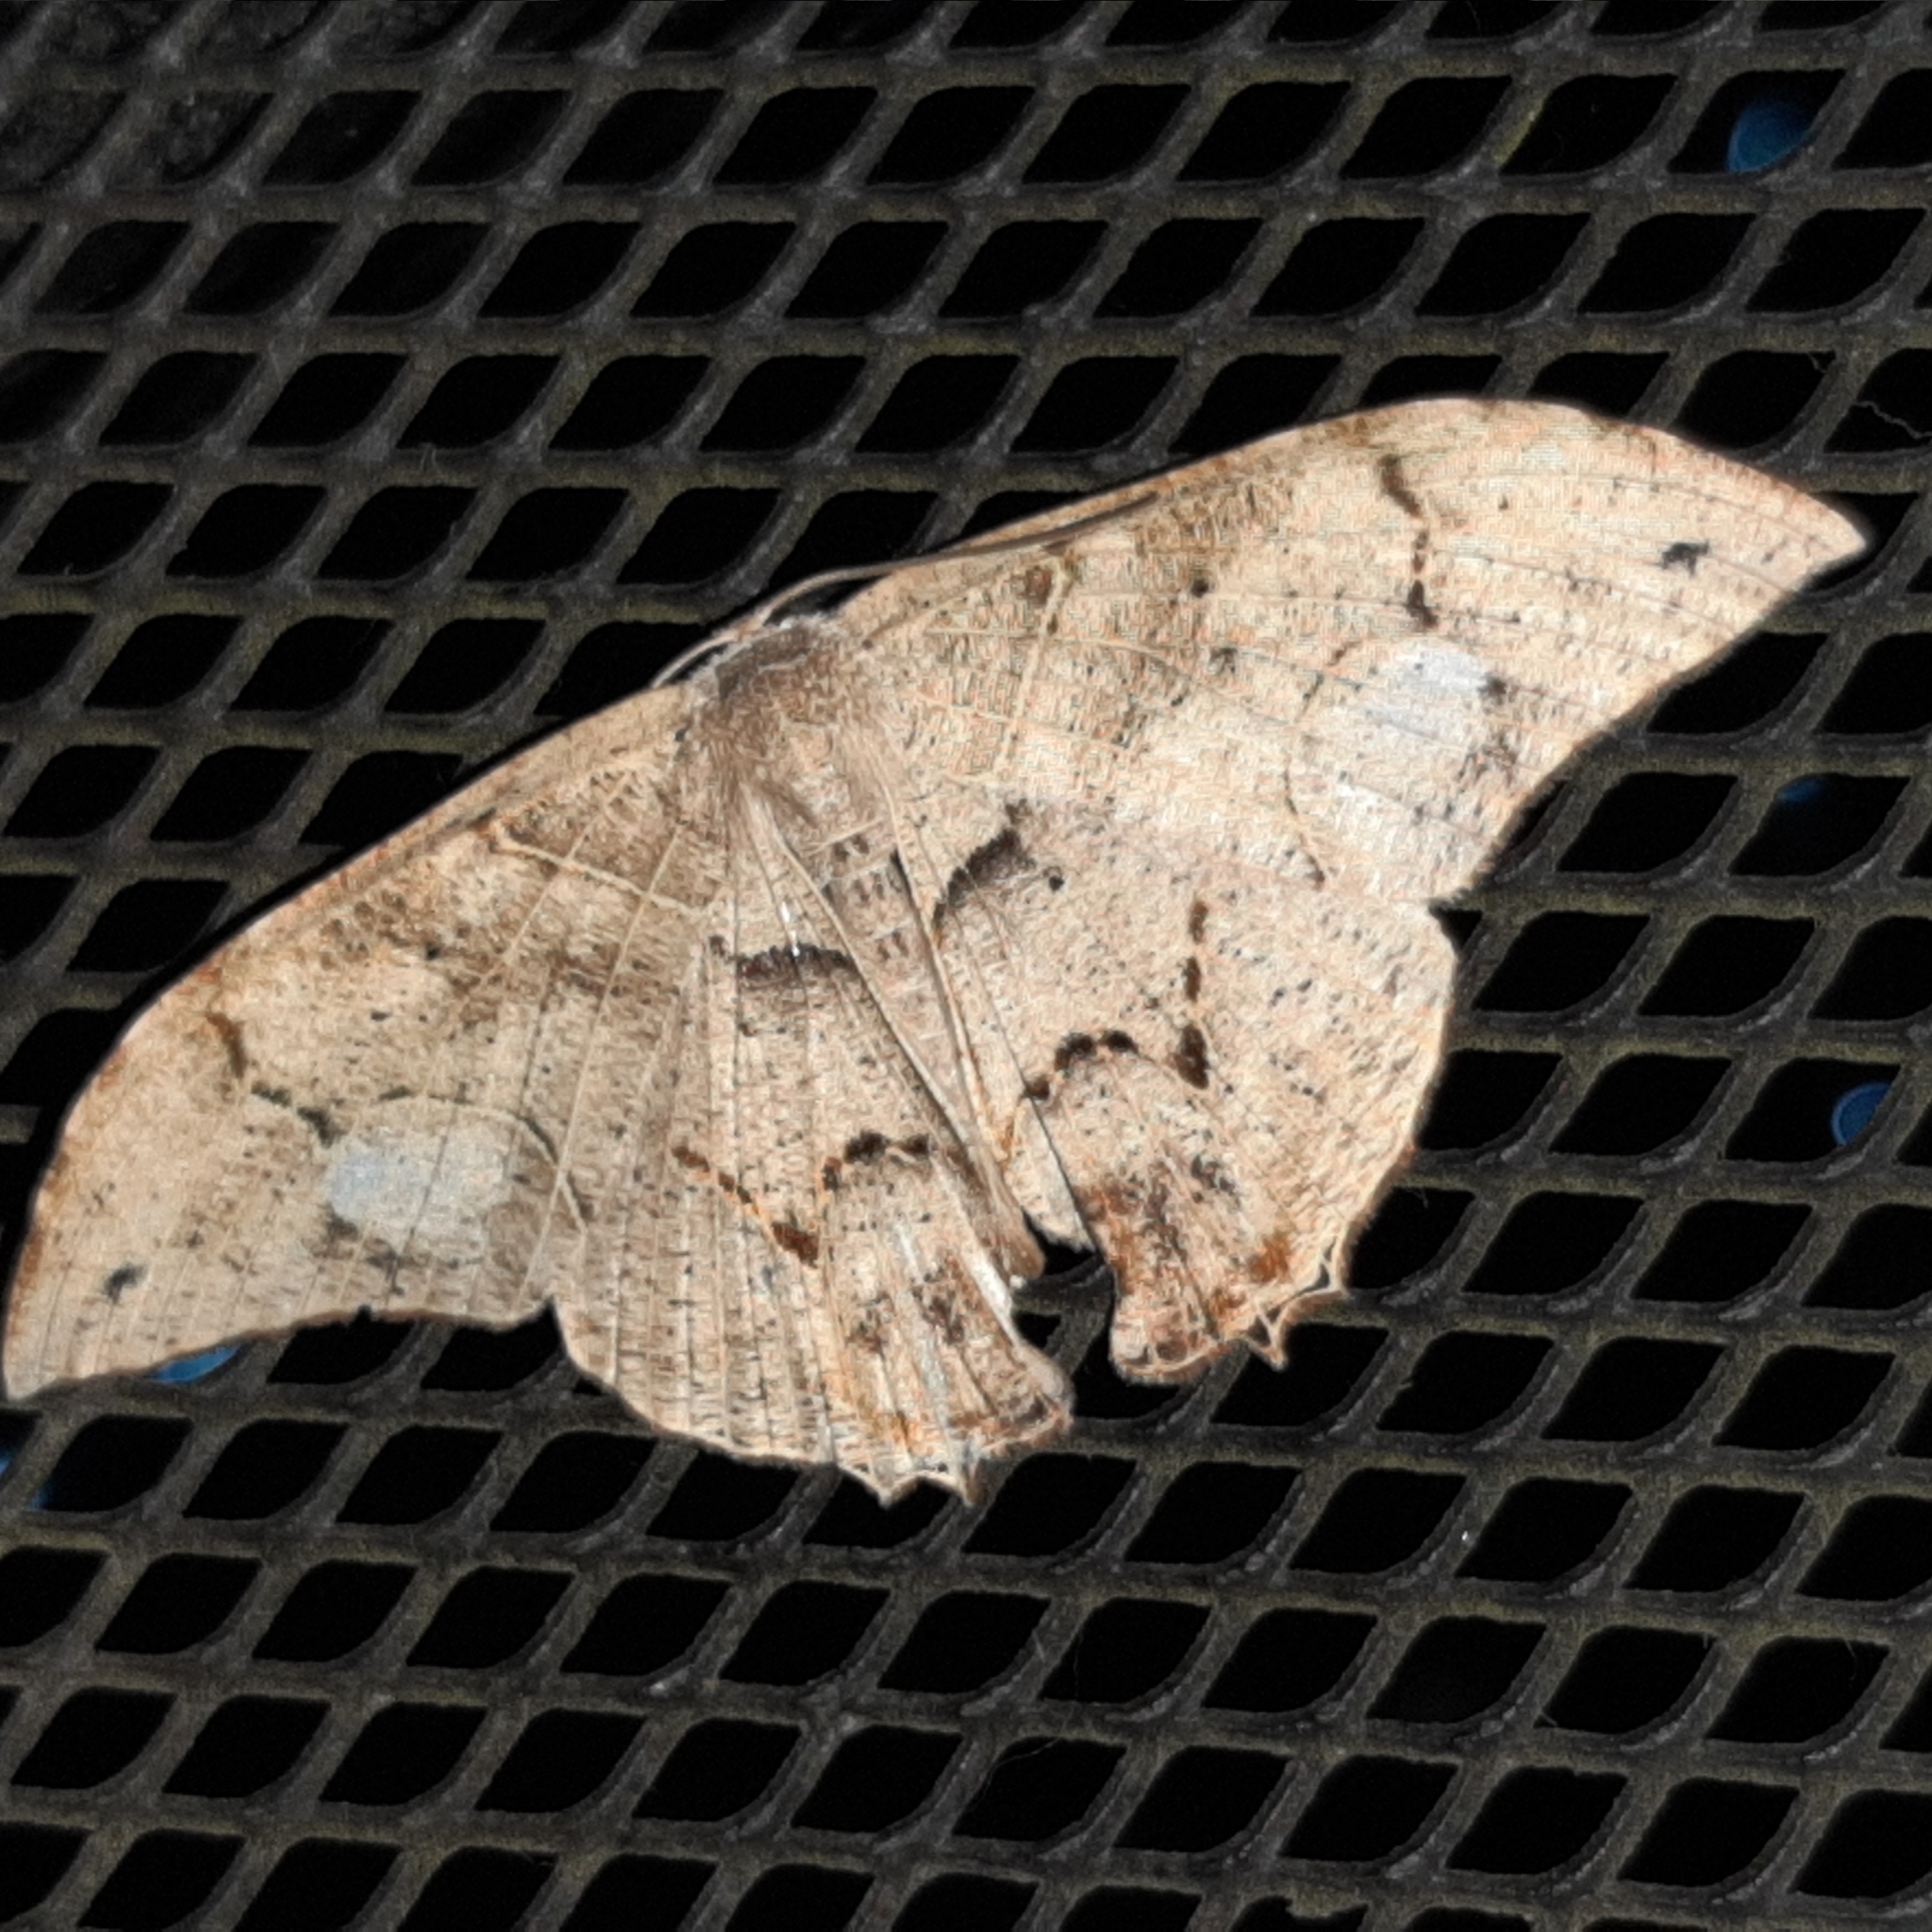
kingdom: Animalia
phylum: Arthropoda
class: Insecta
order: Lepidoptera
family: Uraniidae
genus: Syngria
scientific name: Syngria druidaria
